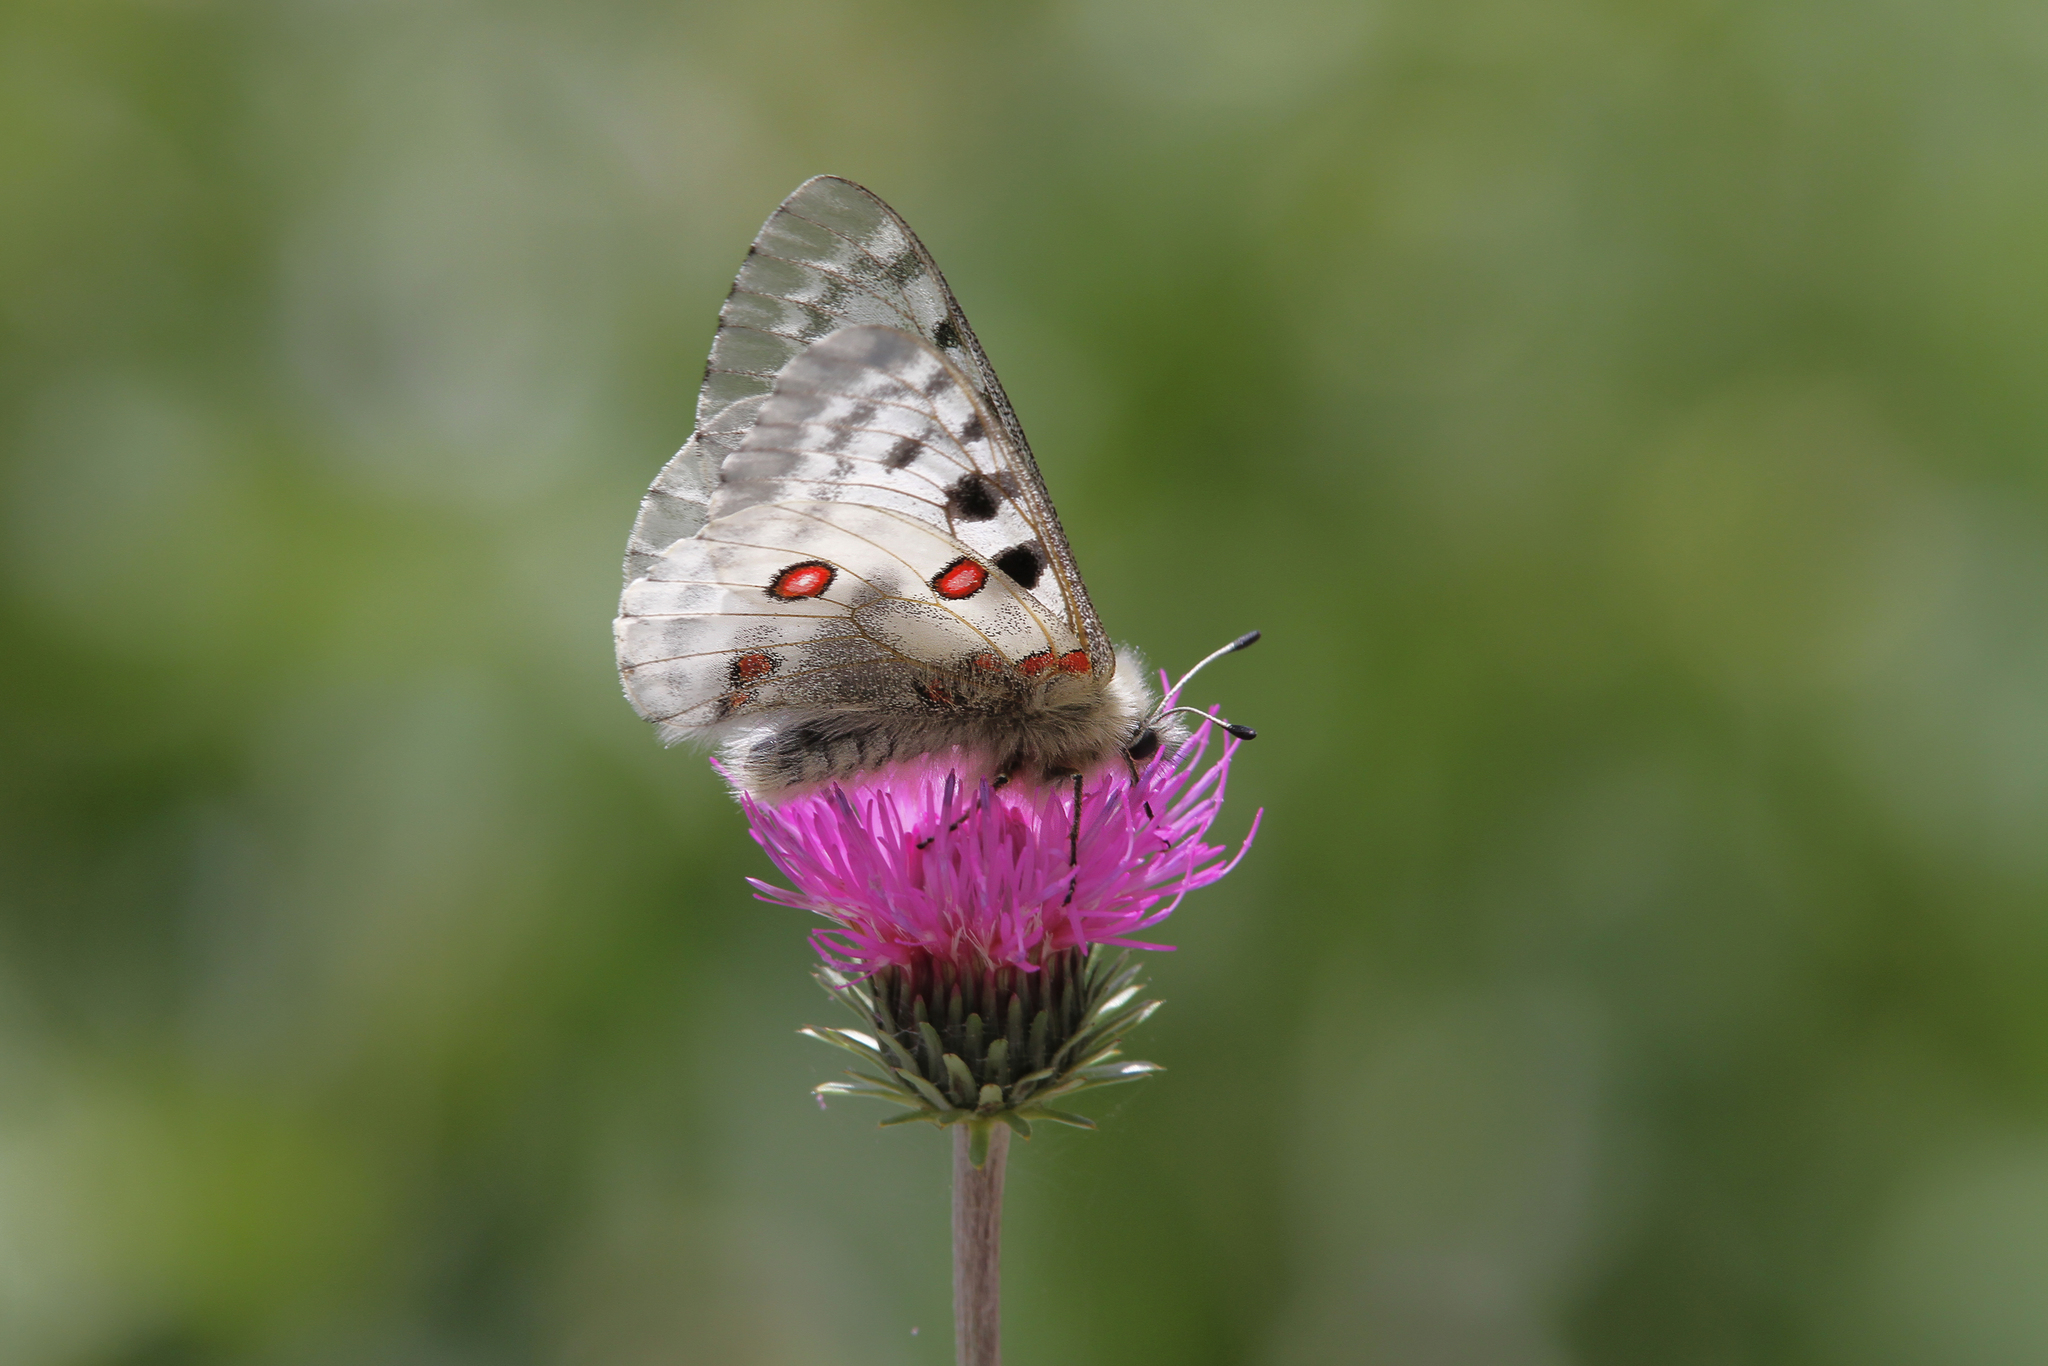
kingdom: Animalia
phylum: Arthropoda
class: Insecta
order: Lepidoptera
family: Papilionidae
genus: Parnassius
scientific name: Parnassius apollo
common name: Apollo
